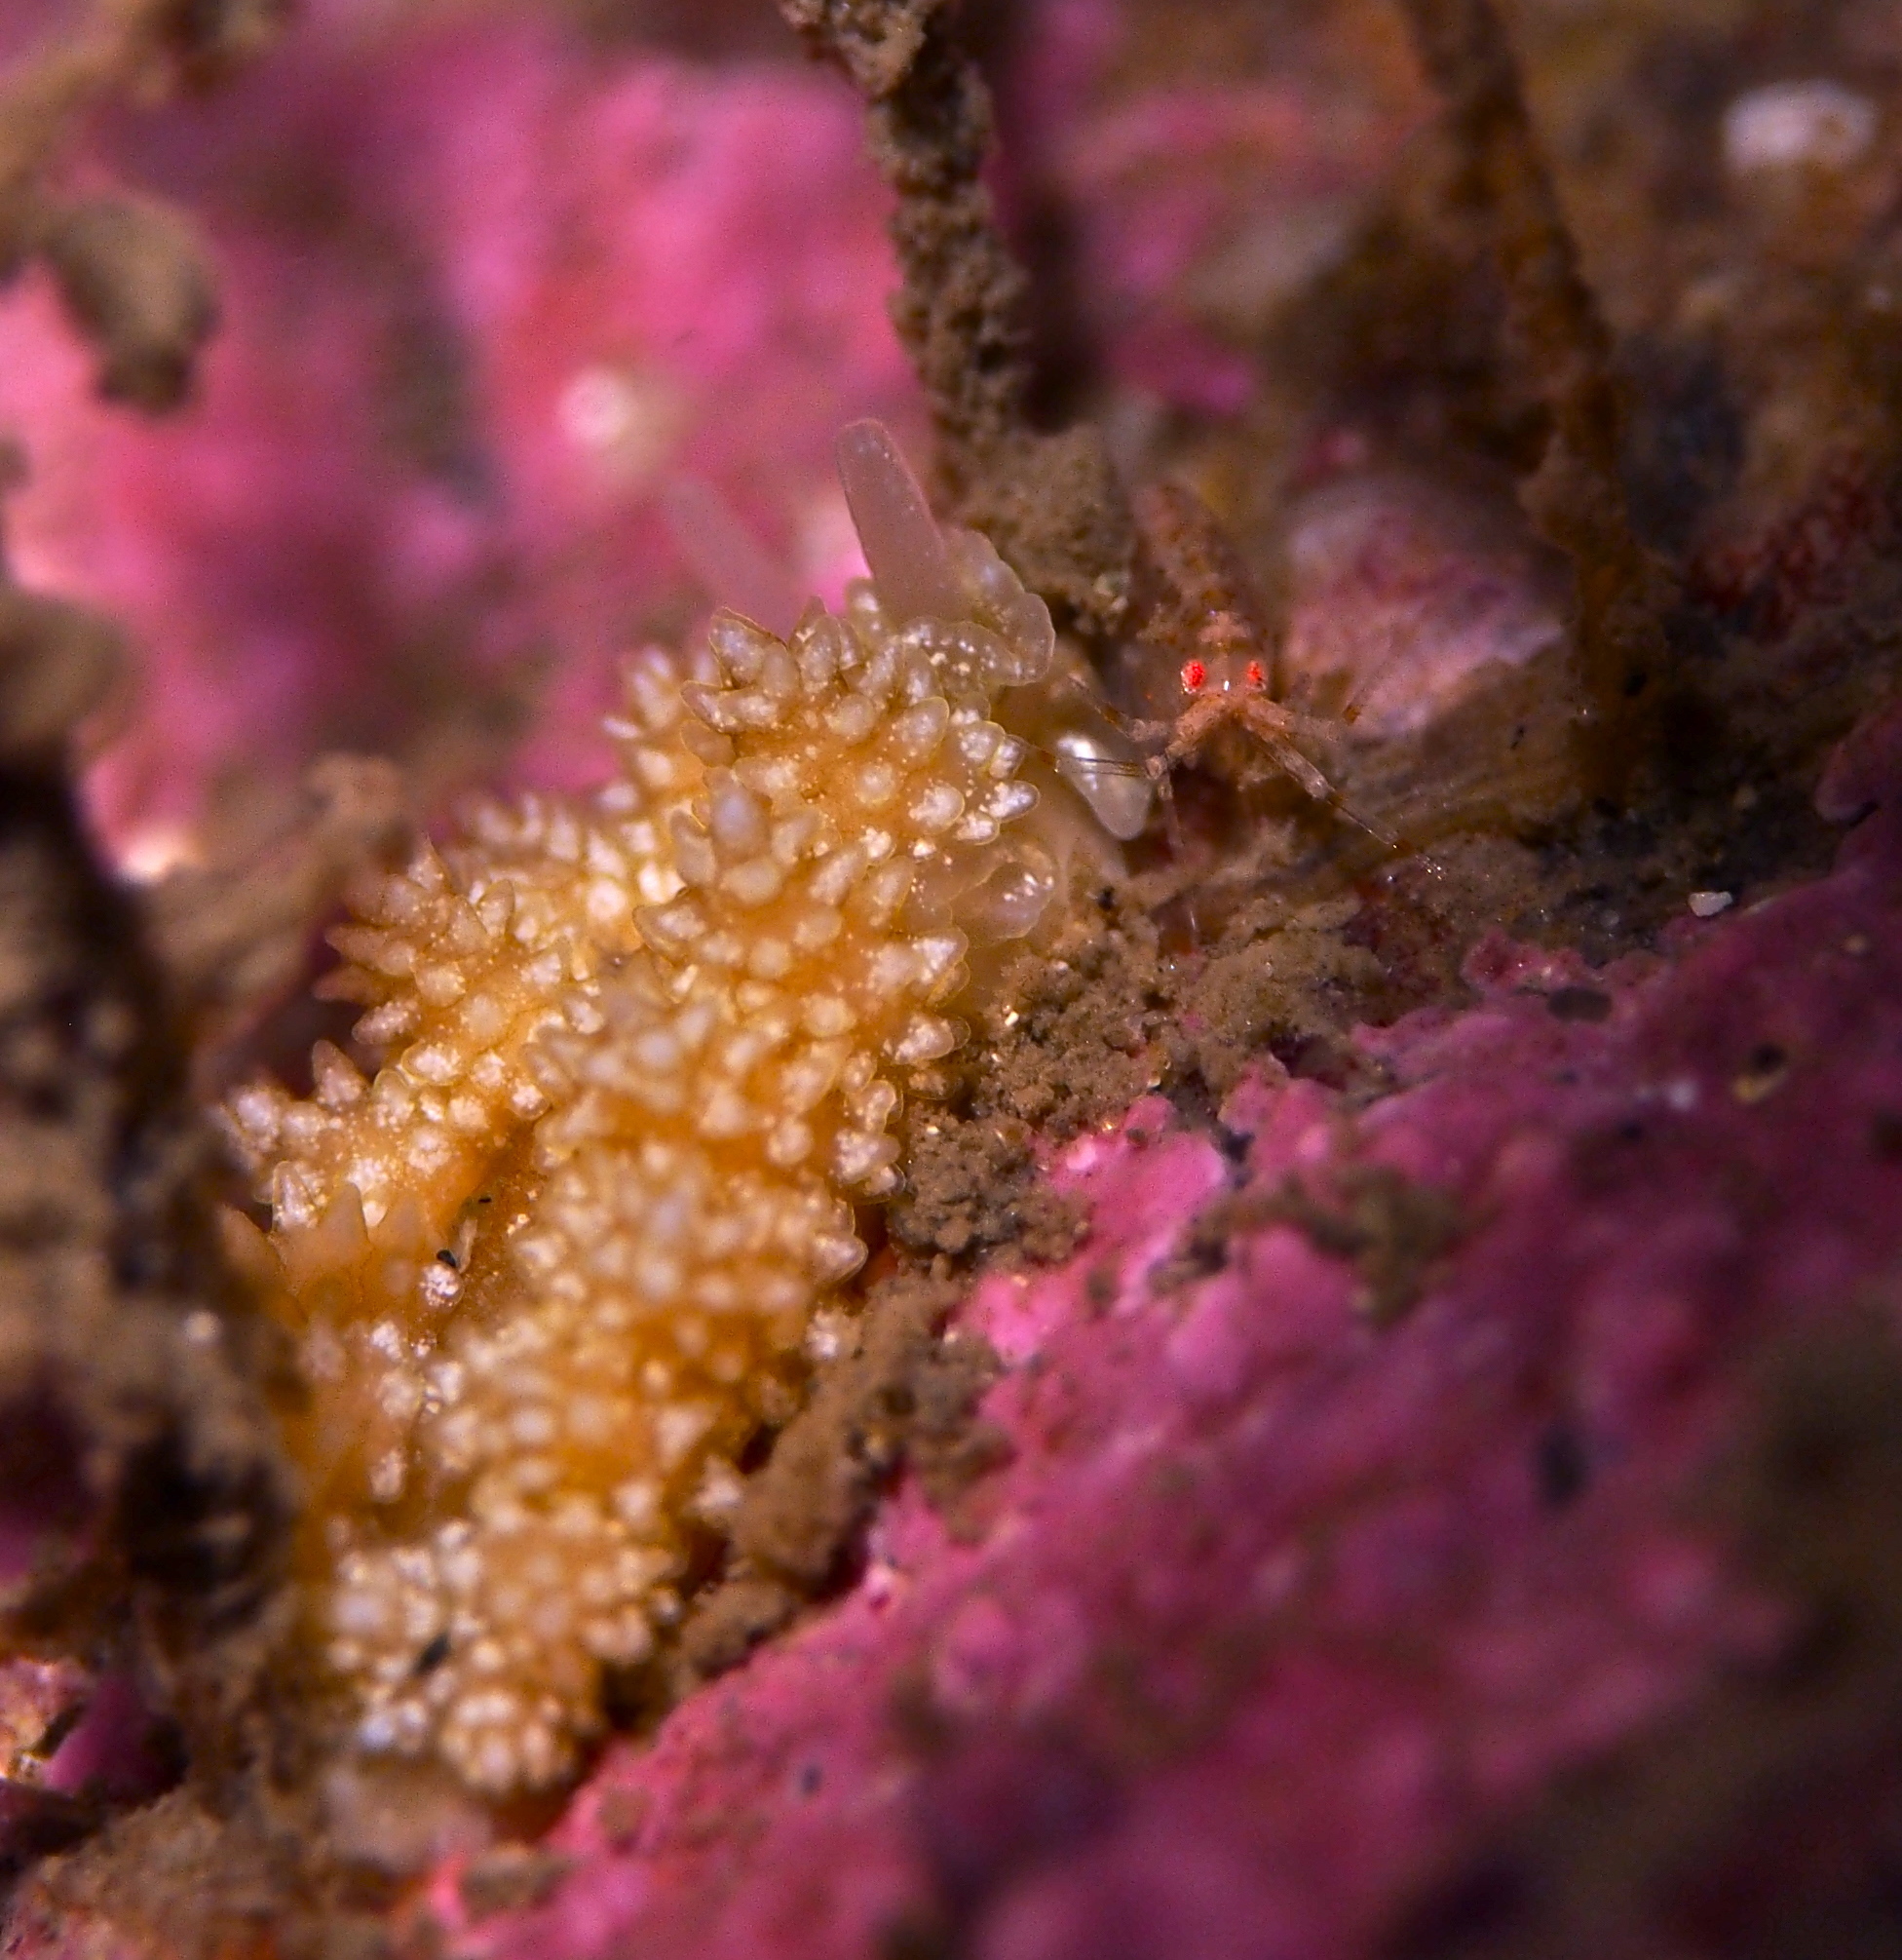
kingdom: Animalia
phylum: Mollusca
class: Gastropoda
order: Nudibranchia
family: Dotidae
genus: Doto
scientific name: Doto fragilis
